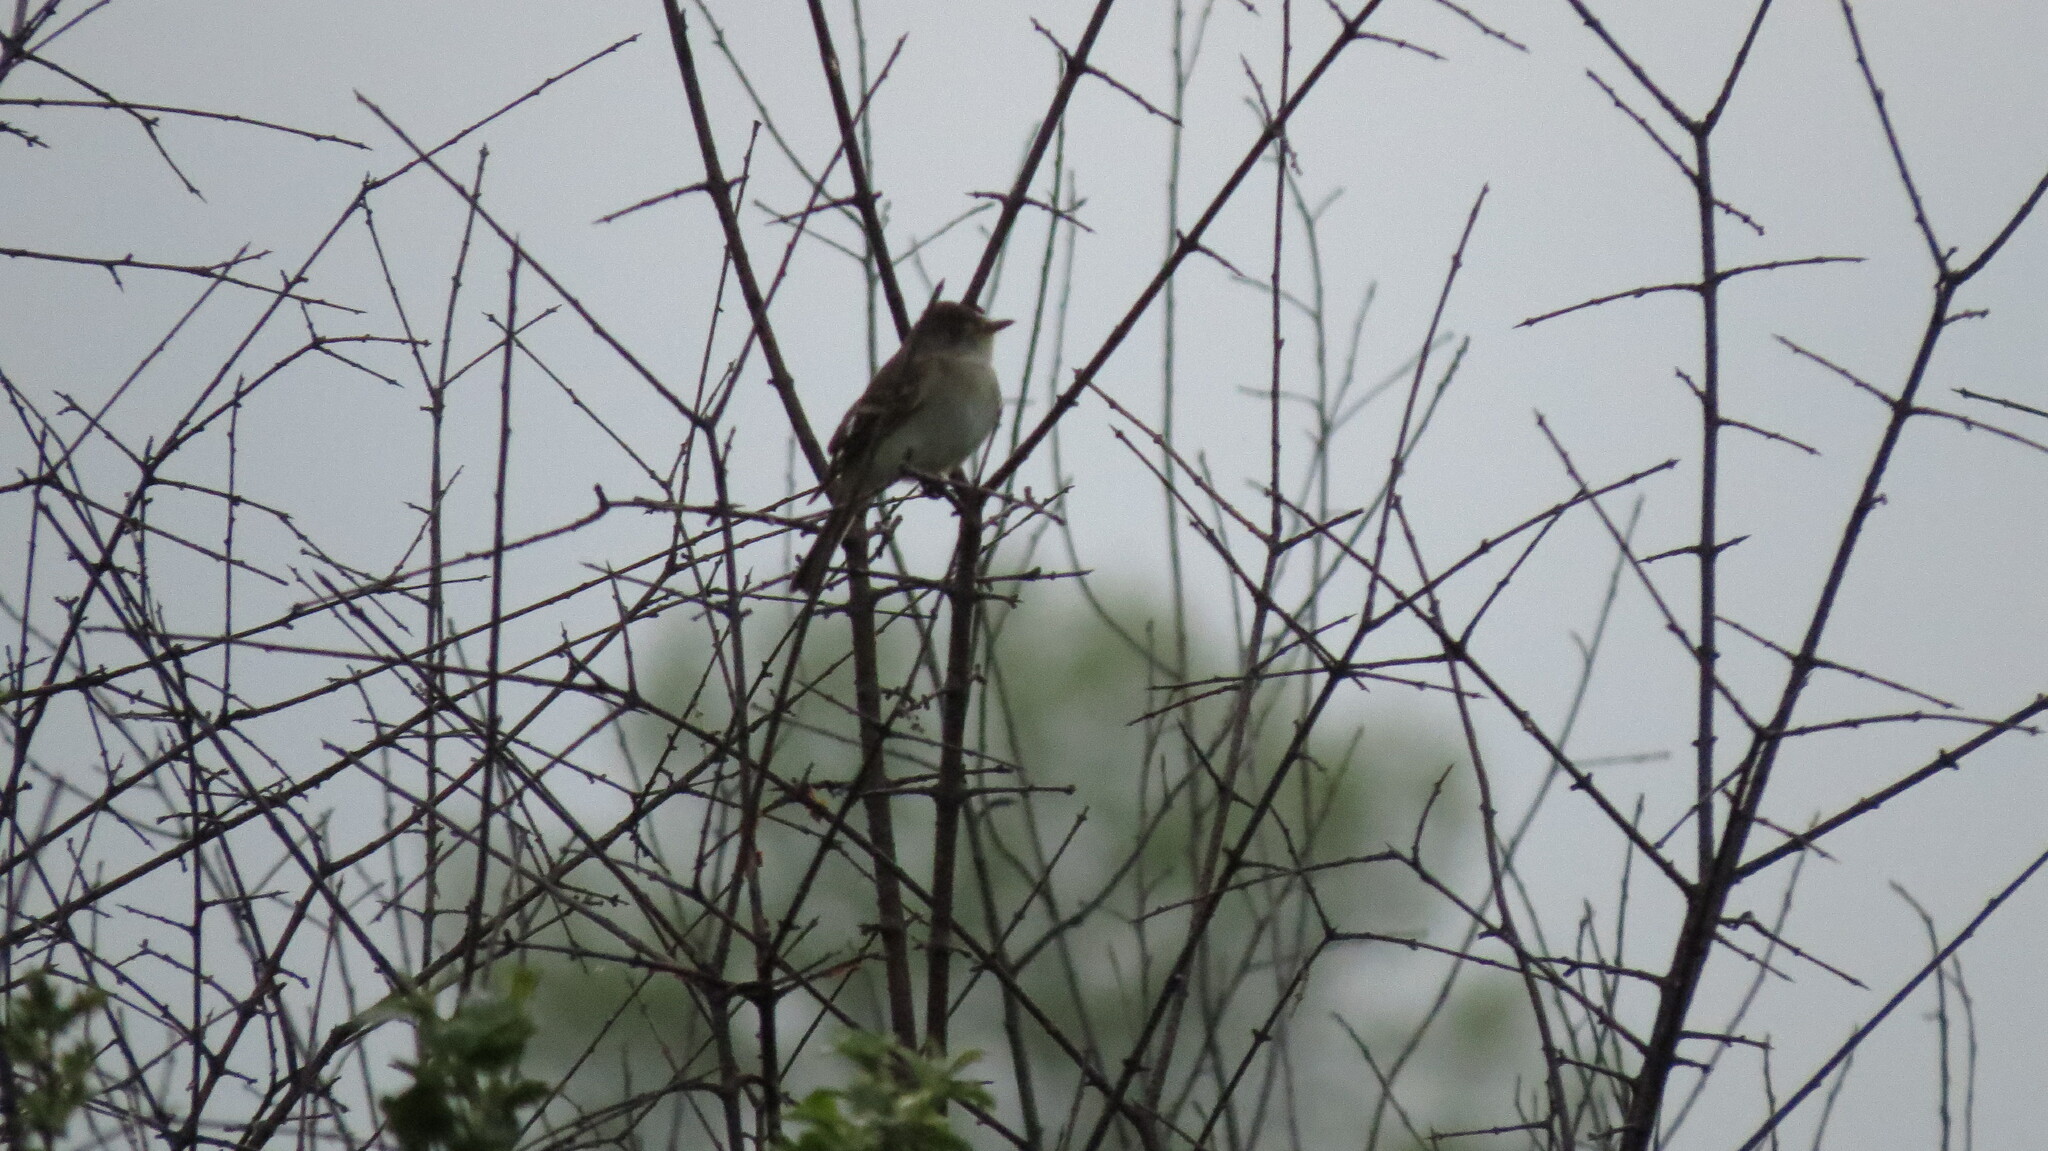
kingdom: Animalia
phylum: Chordata
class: Aves
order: Passeriformes
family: Tyrannidae
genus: Empidonax
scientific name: Empidonax traillii
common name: Willow flycatcher
